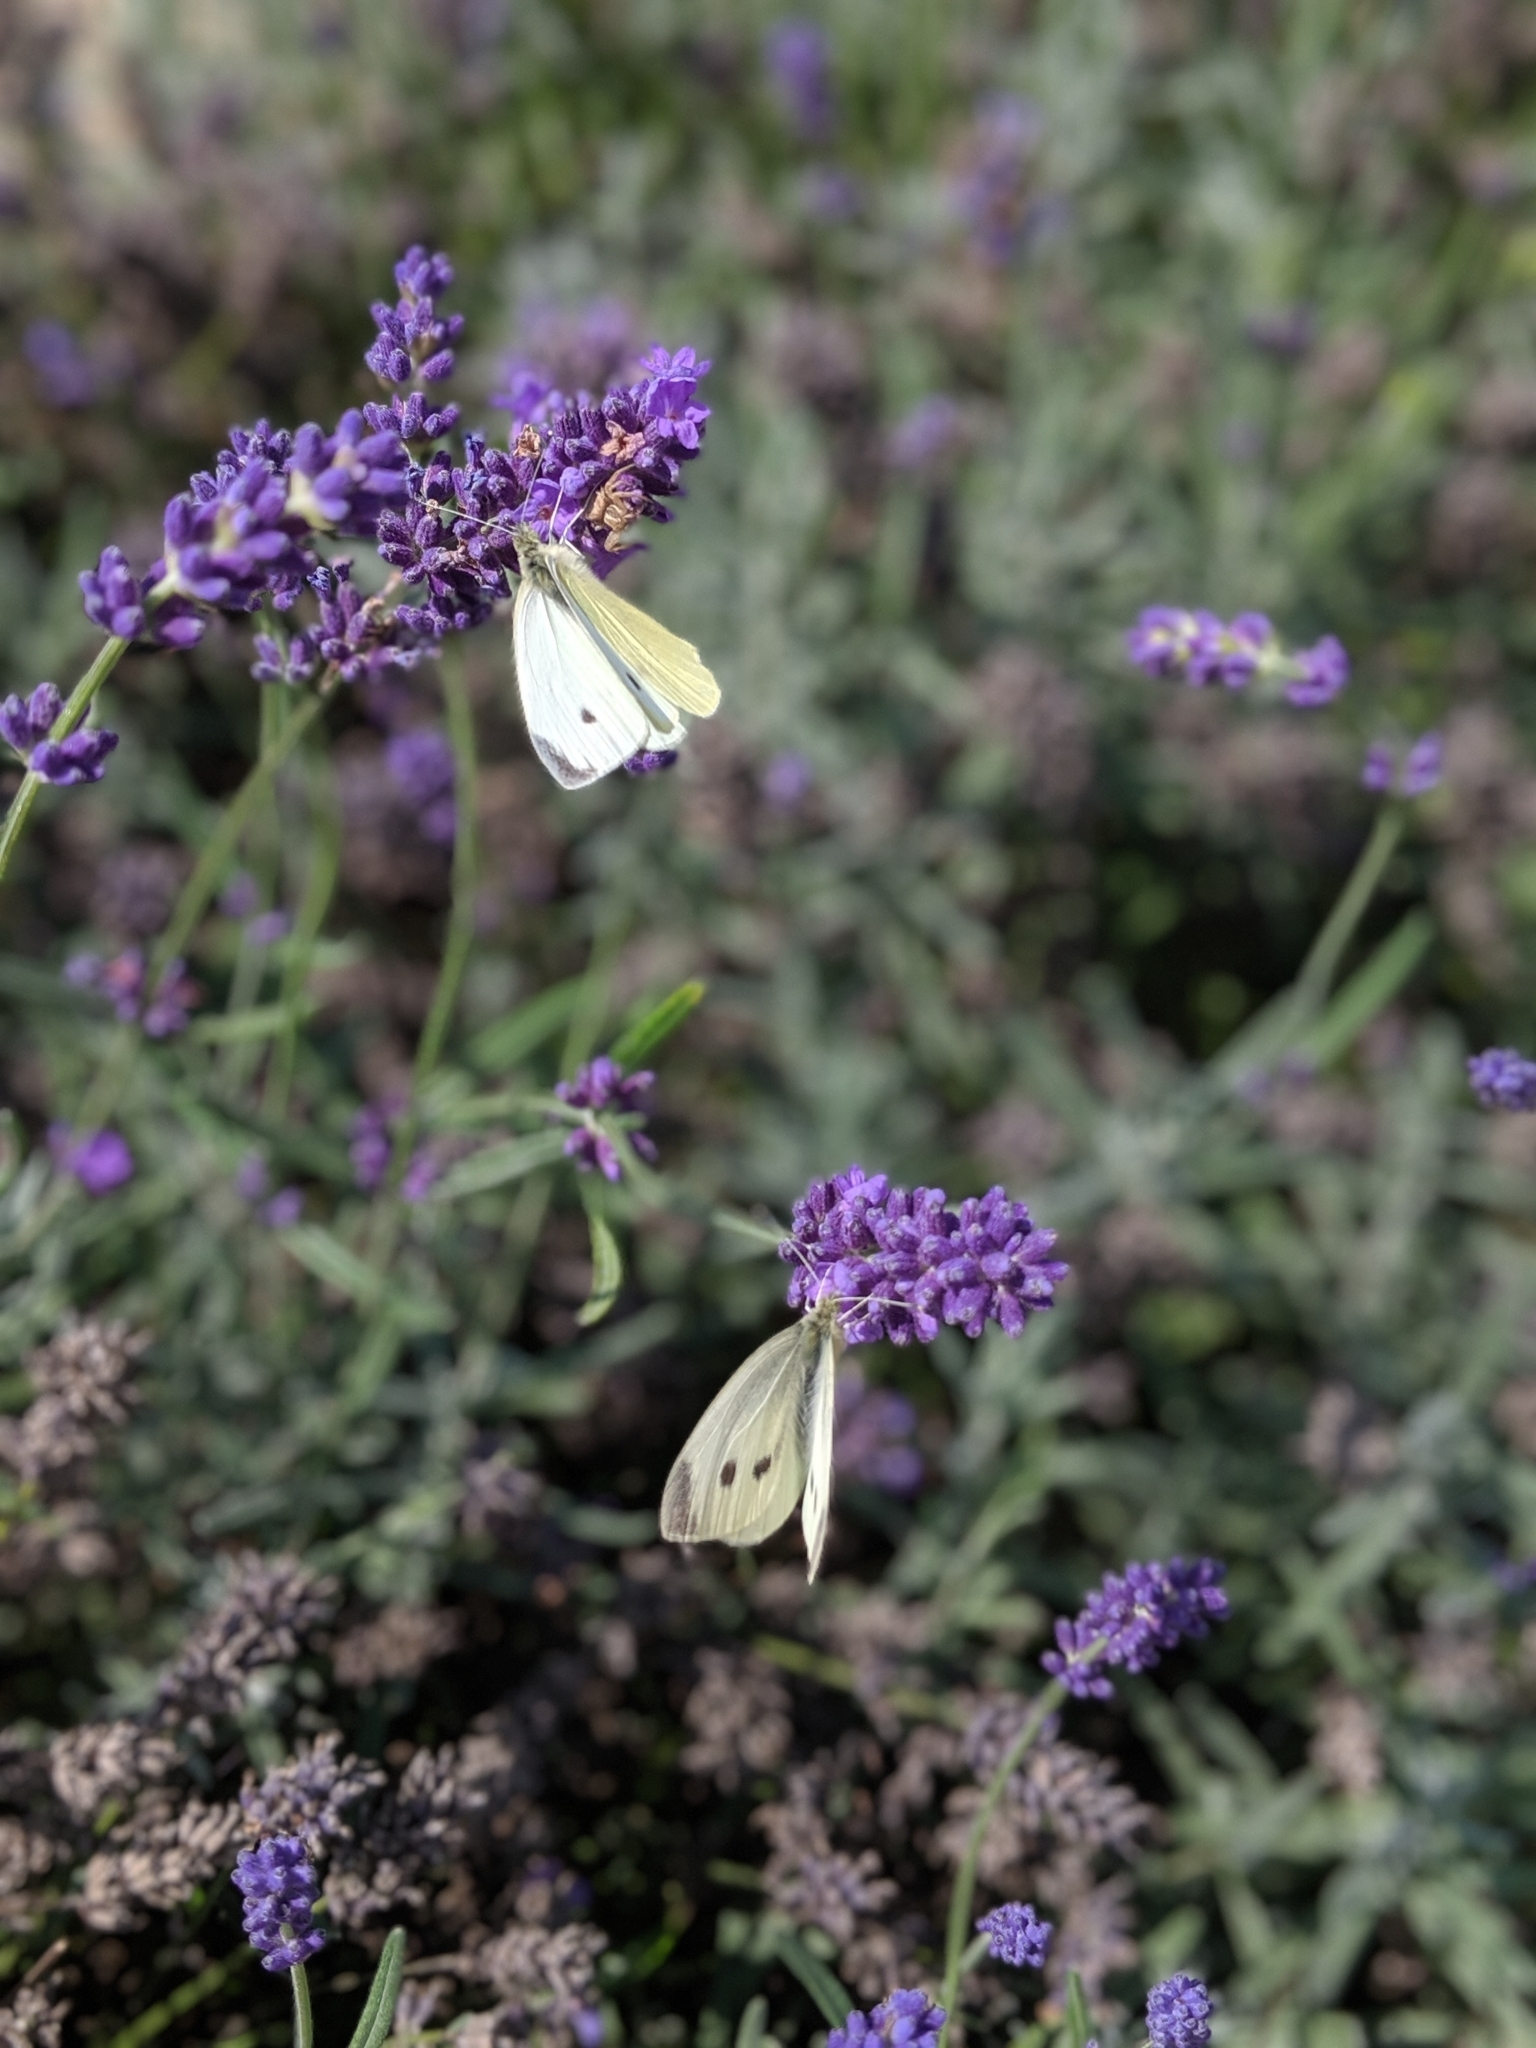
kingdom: Animalia
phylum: Arthropoda
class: Insecta
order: Lepidoptera
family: Pieridae
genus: Pieris
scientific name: Pieris rapae
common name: Small white
